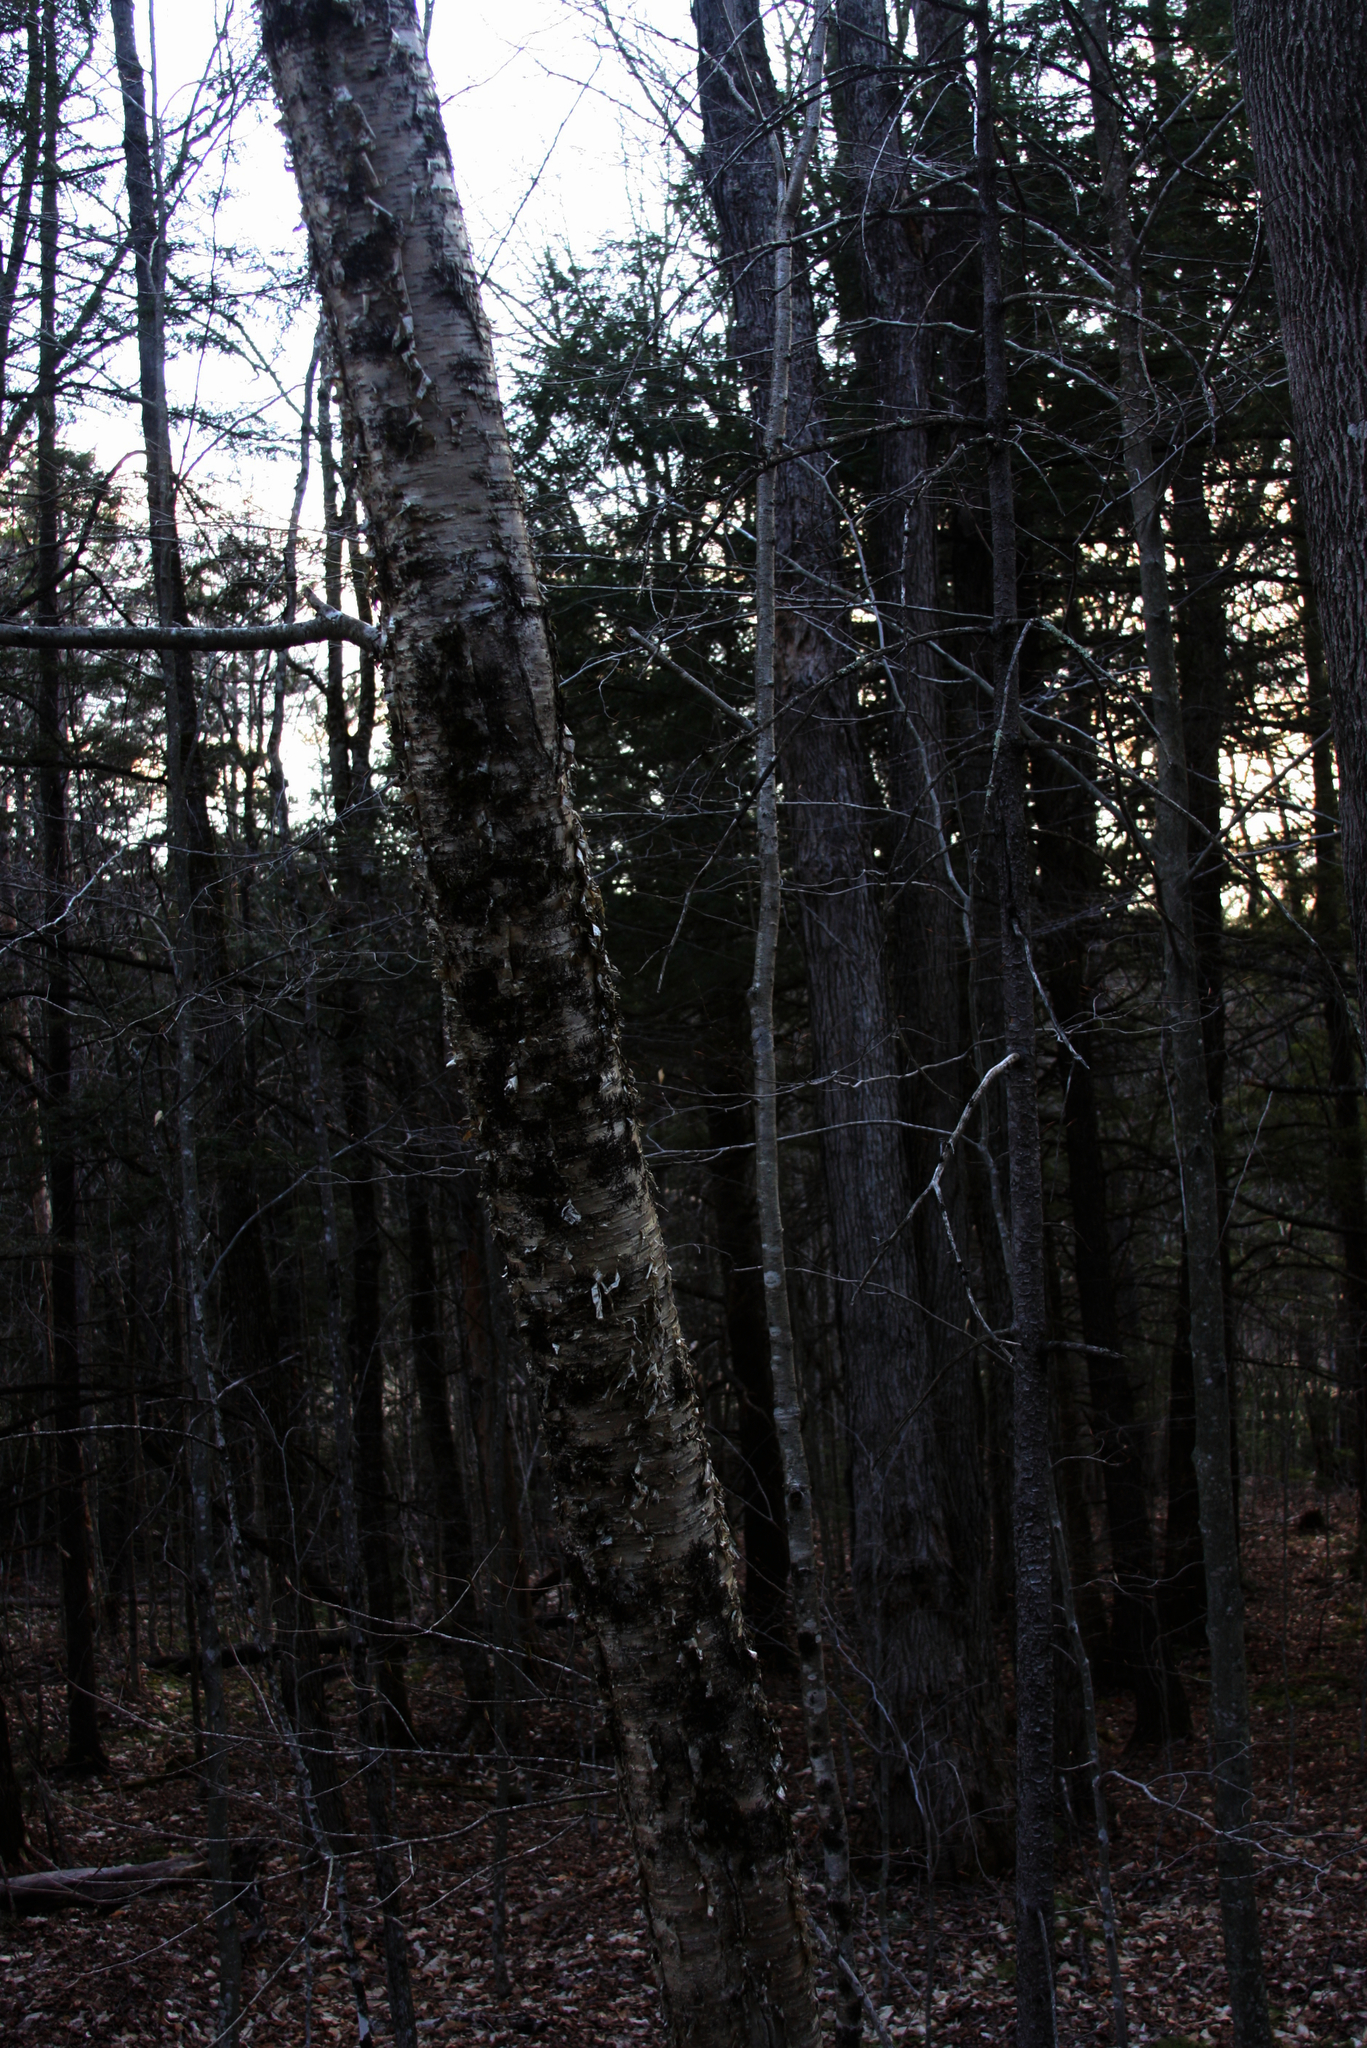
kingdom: Plantae
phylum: Tracheophyta
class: Magnoliopsida
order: Fagales
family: Betulaceae
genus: Betula
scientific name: Betula alleghaniensis
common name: Yellow birch
